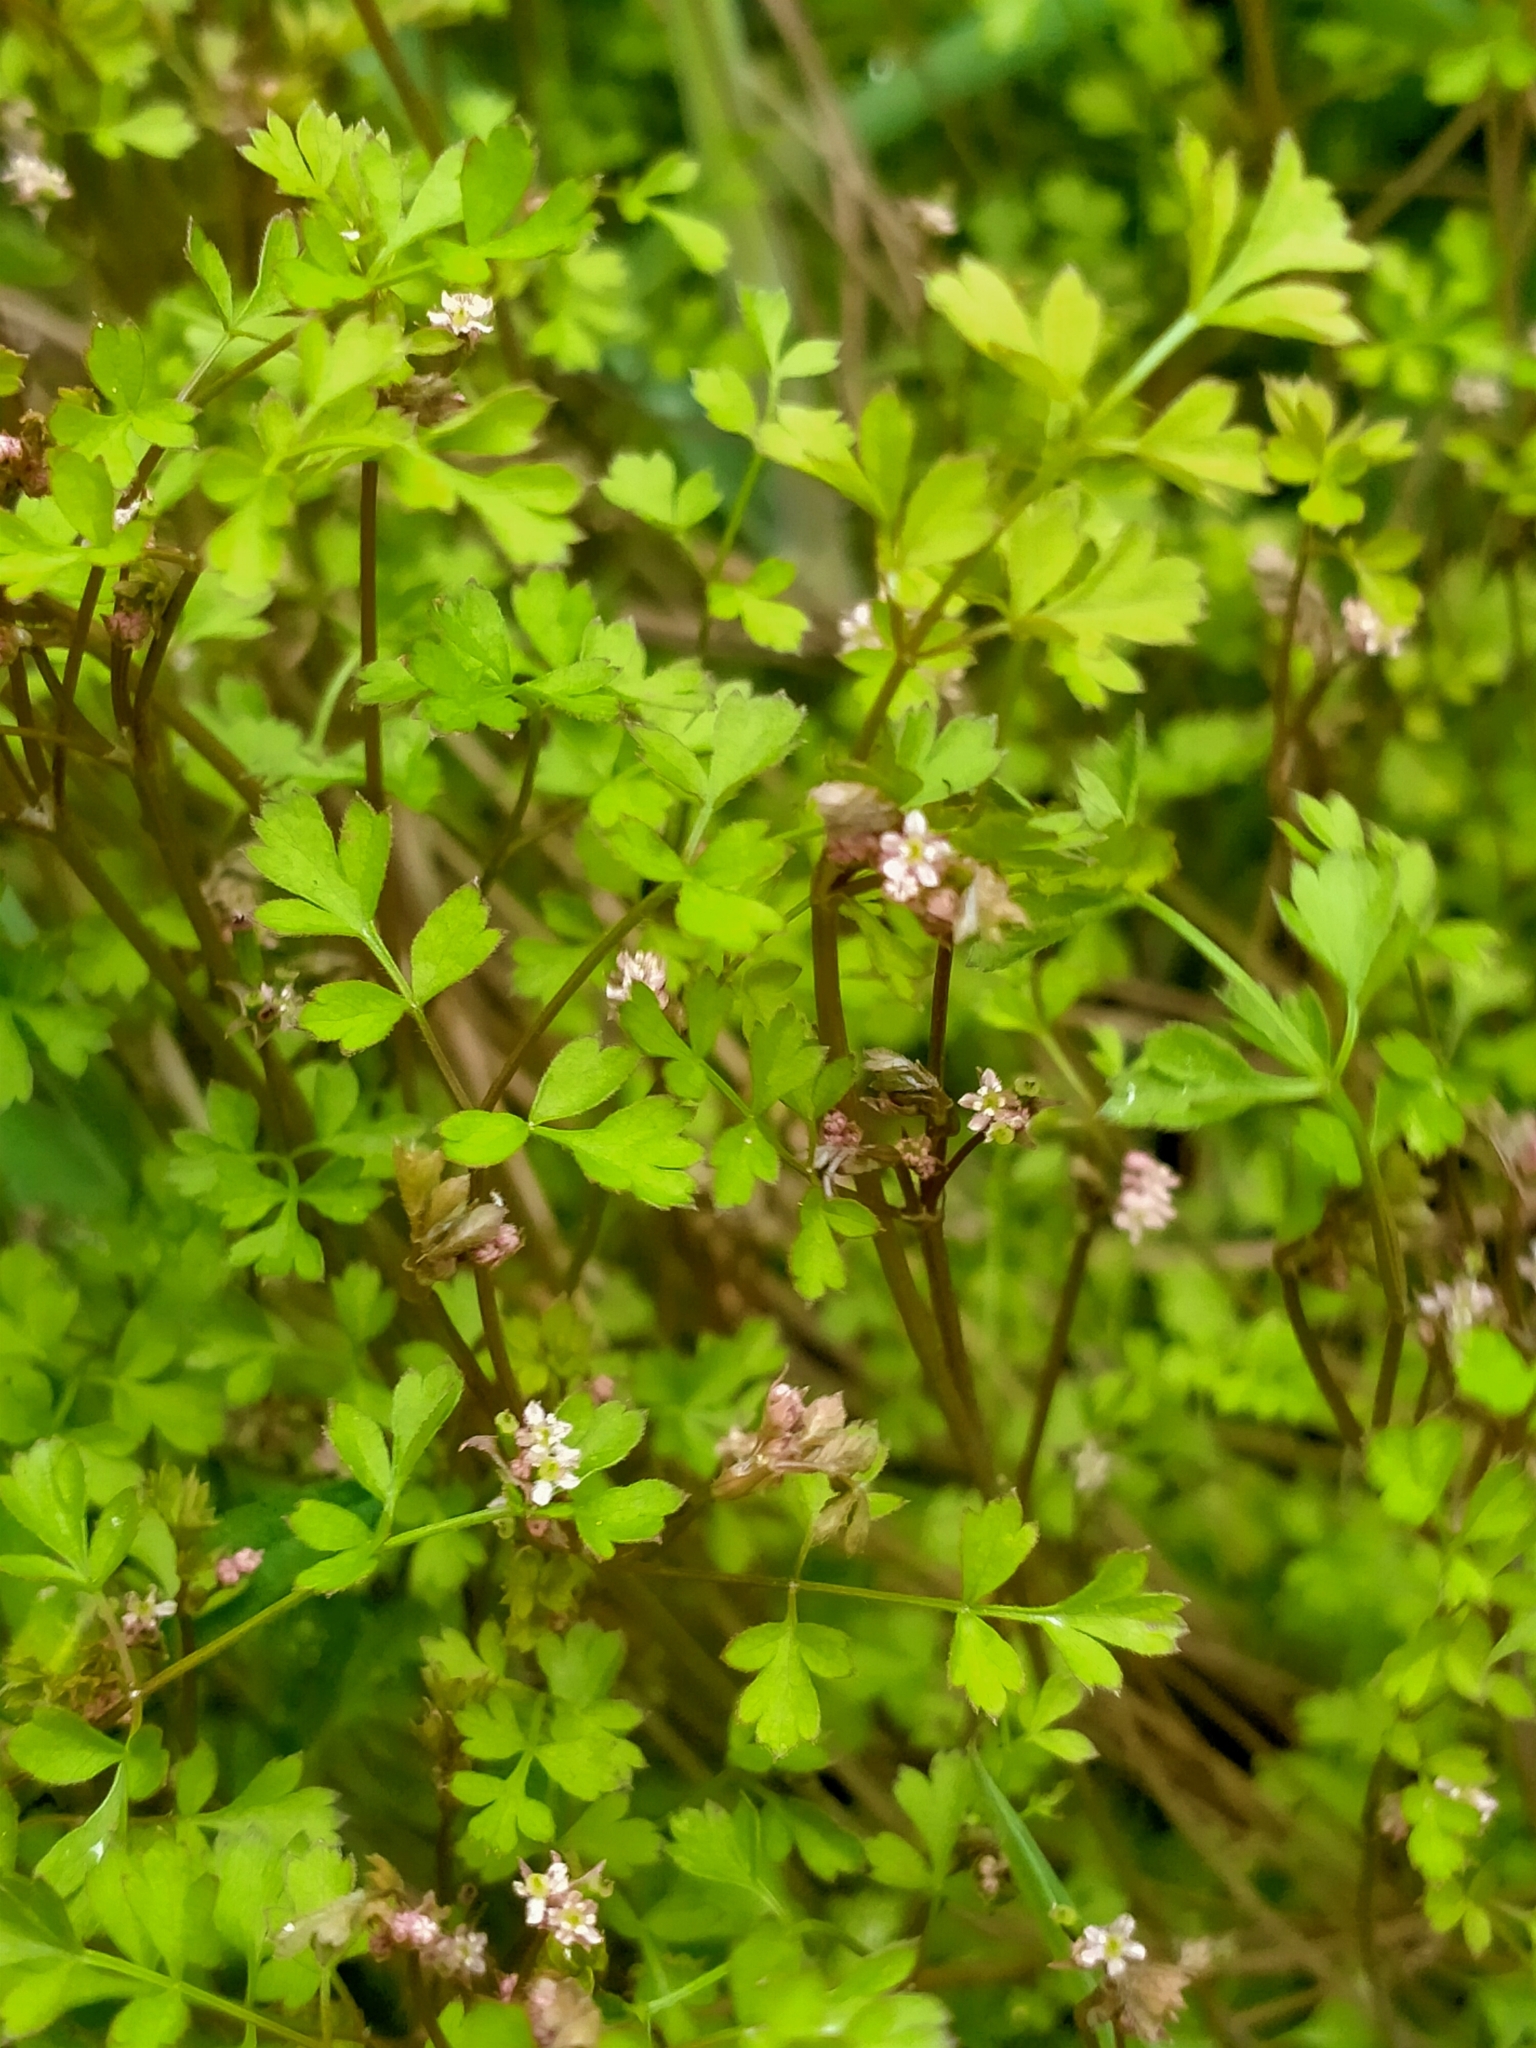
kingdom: Plantae
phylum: Tracheophyta
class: Magnoliopsida
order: Apiales
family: Apiaceae
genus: Chaerophyllum
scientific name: Chaerophyllum ramosum
